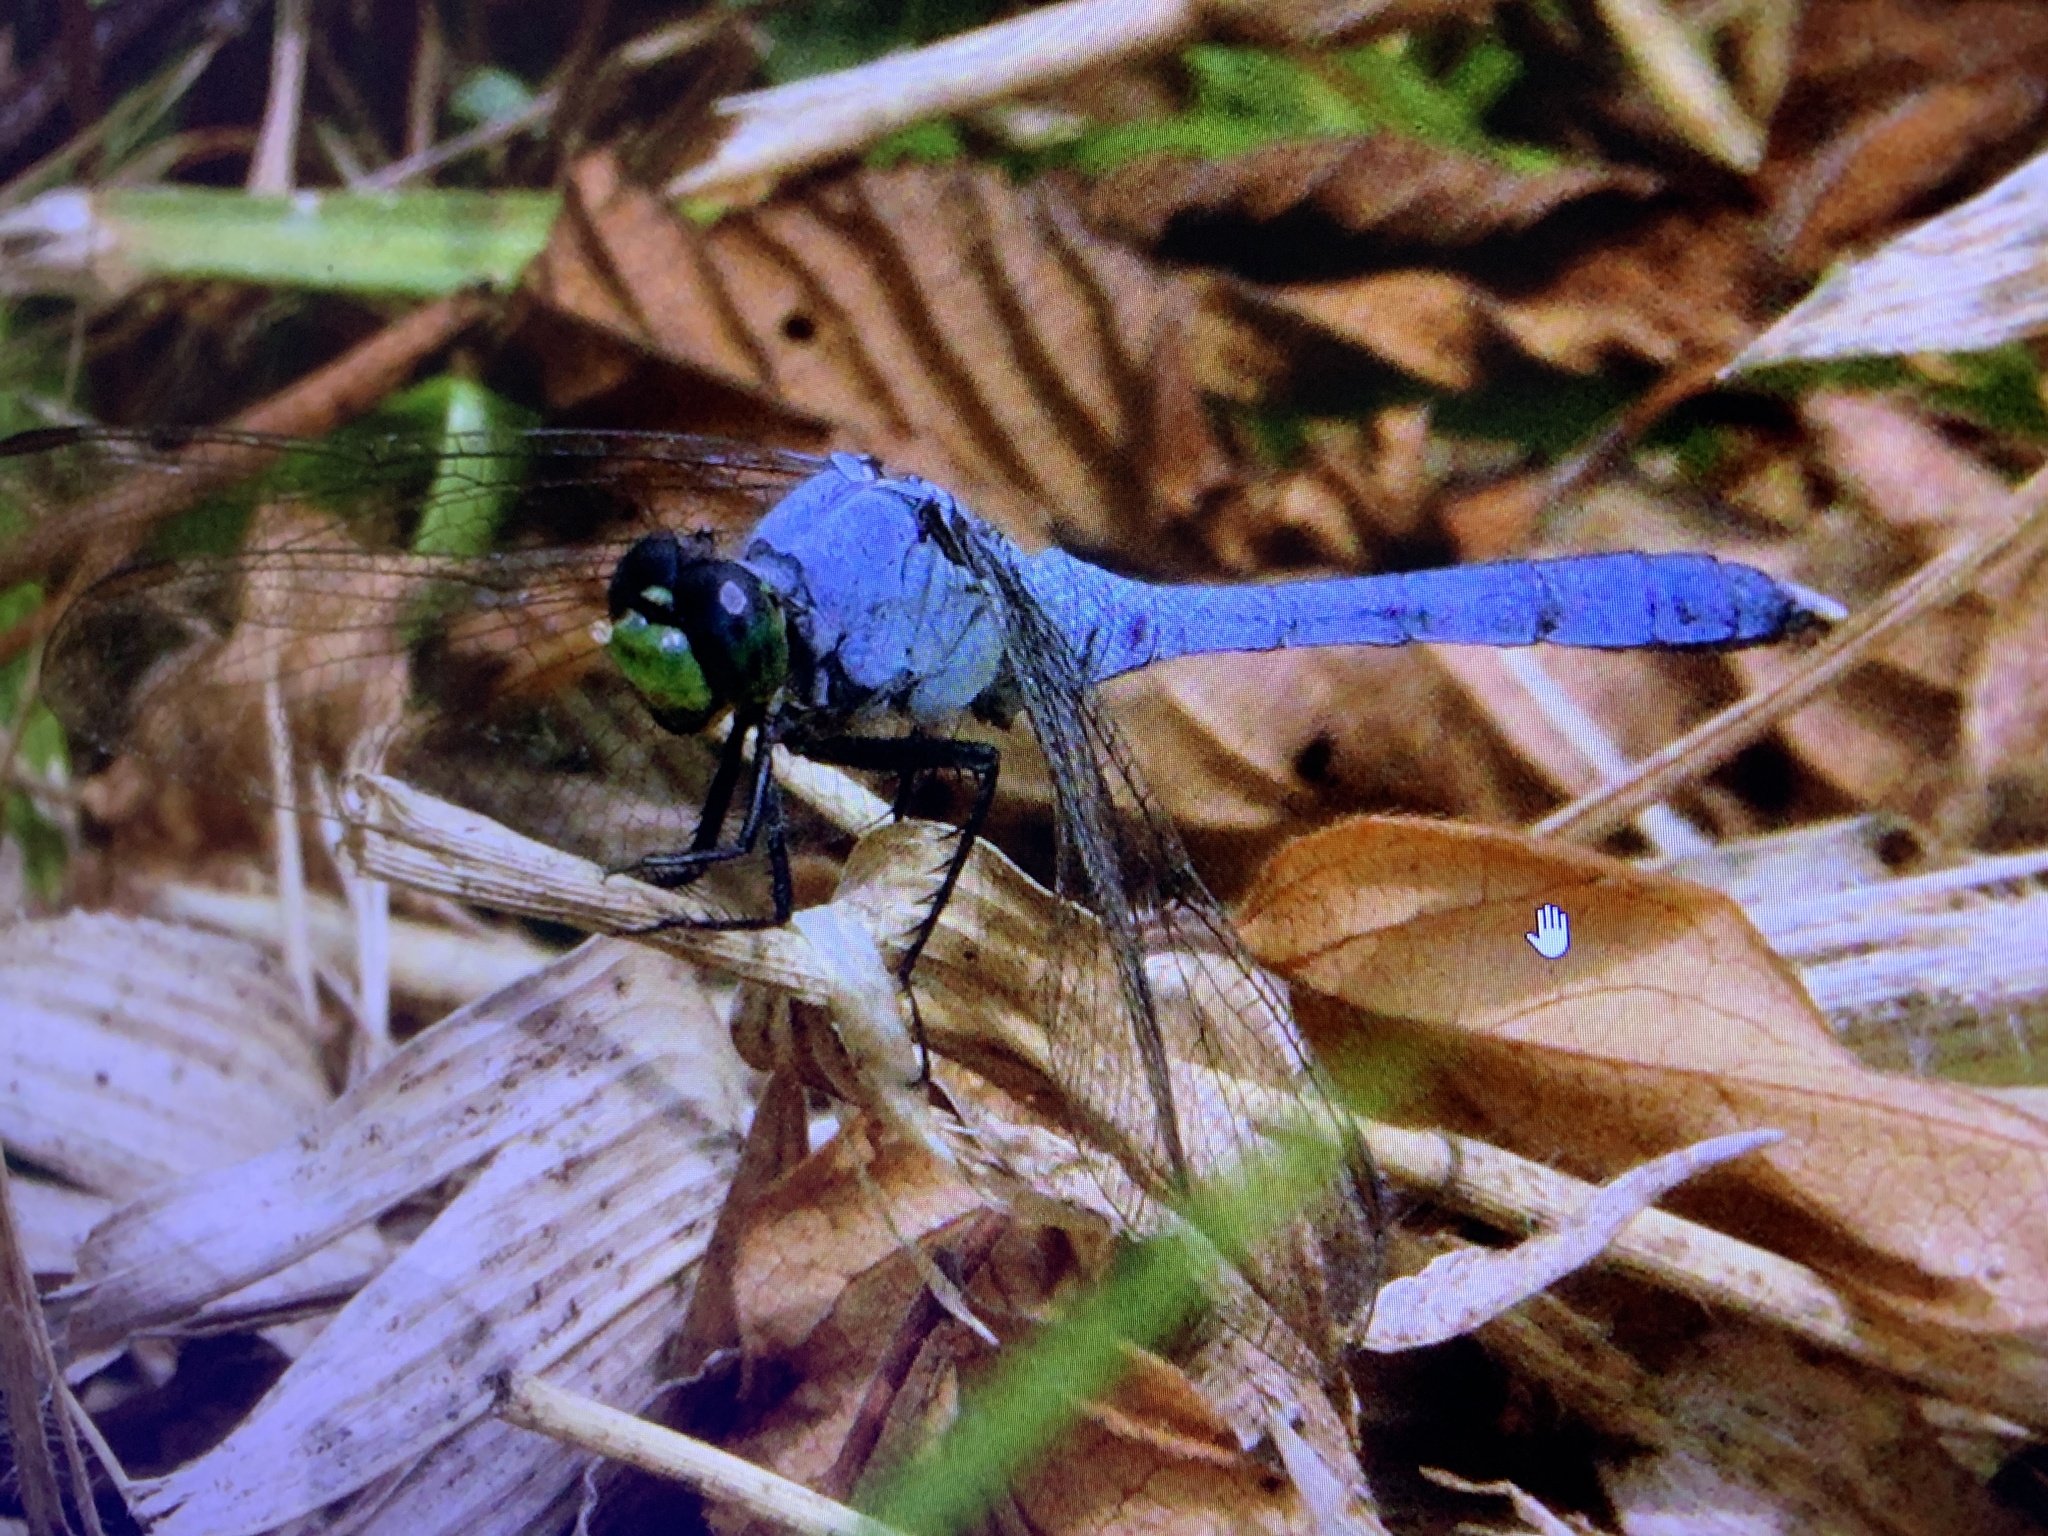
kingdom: Animalia
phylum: Arthropoda
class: Insecta
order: Odonata
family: Libellulidae
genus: Erythemis
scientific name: Erythemis simplicicollis
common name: Eastern pondhawk
